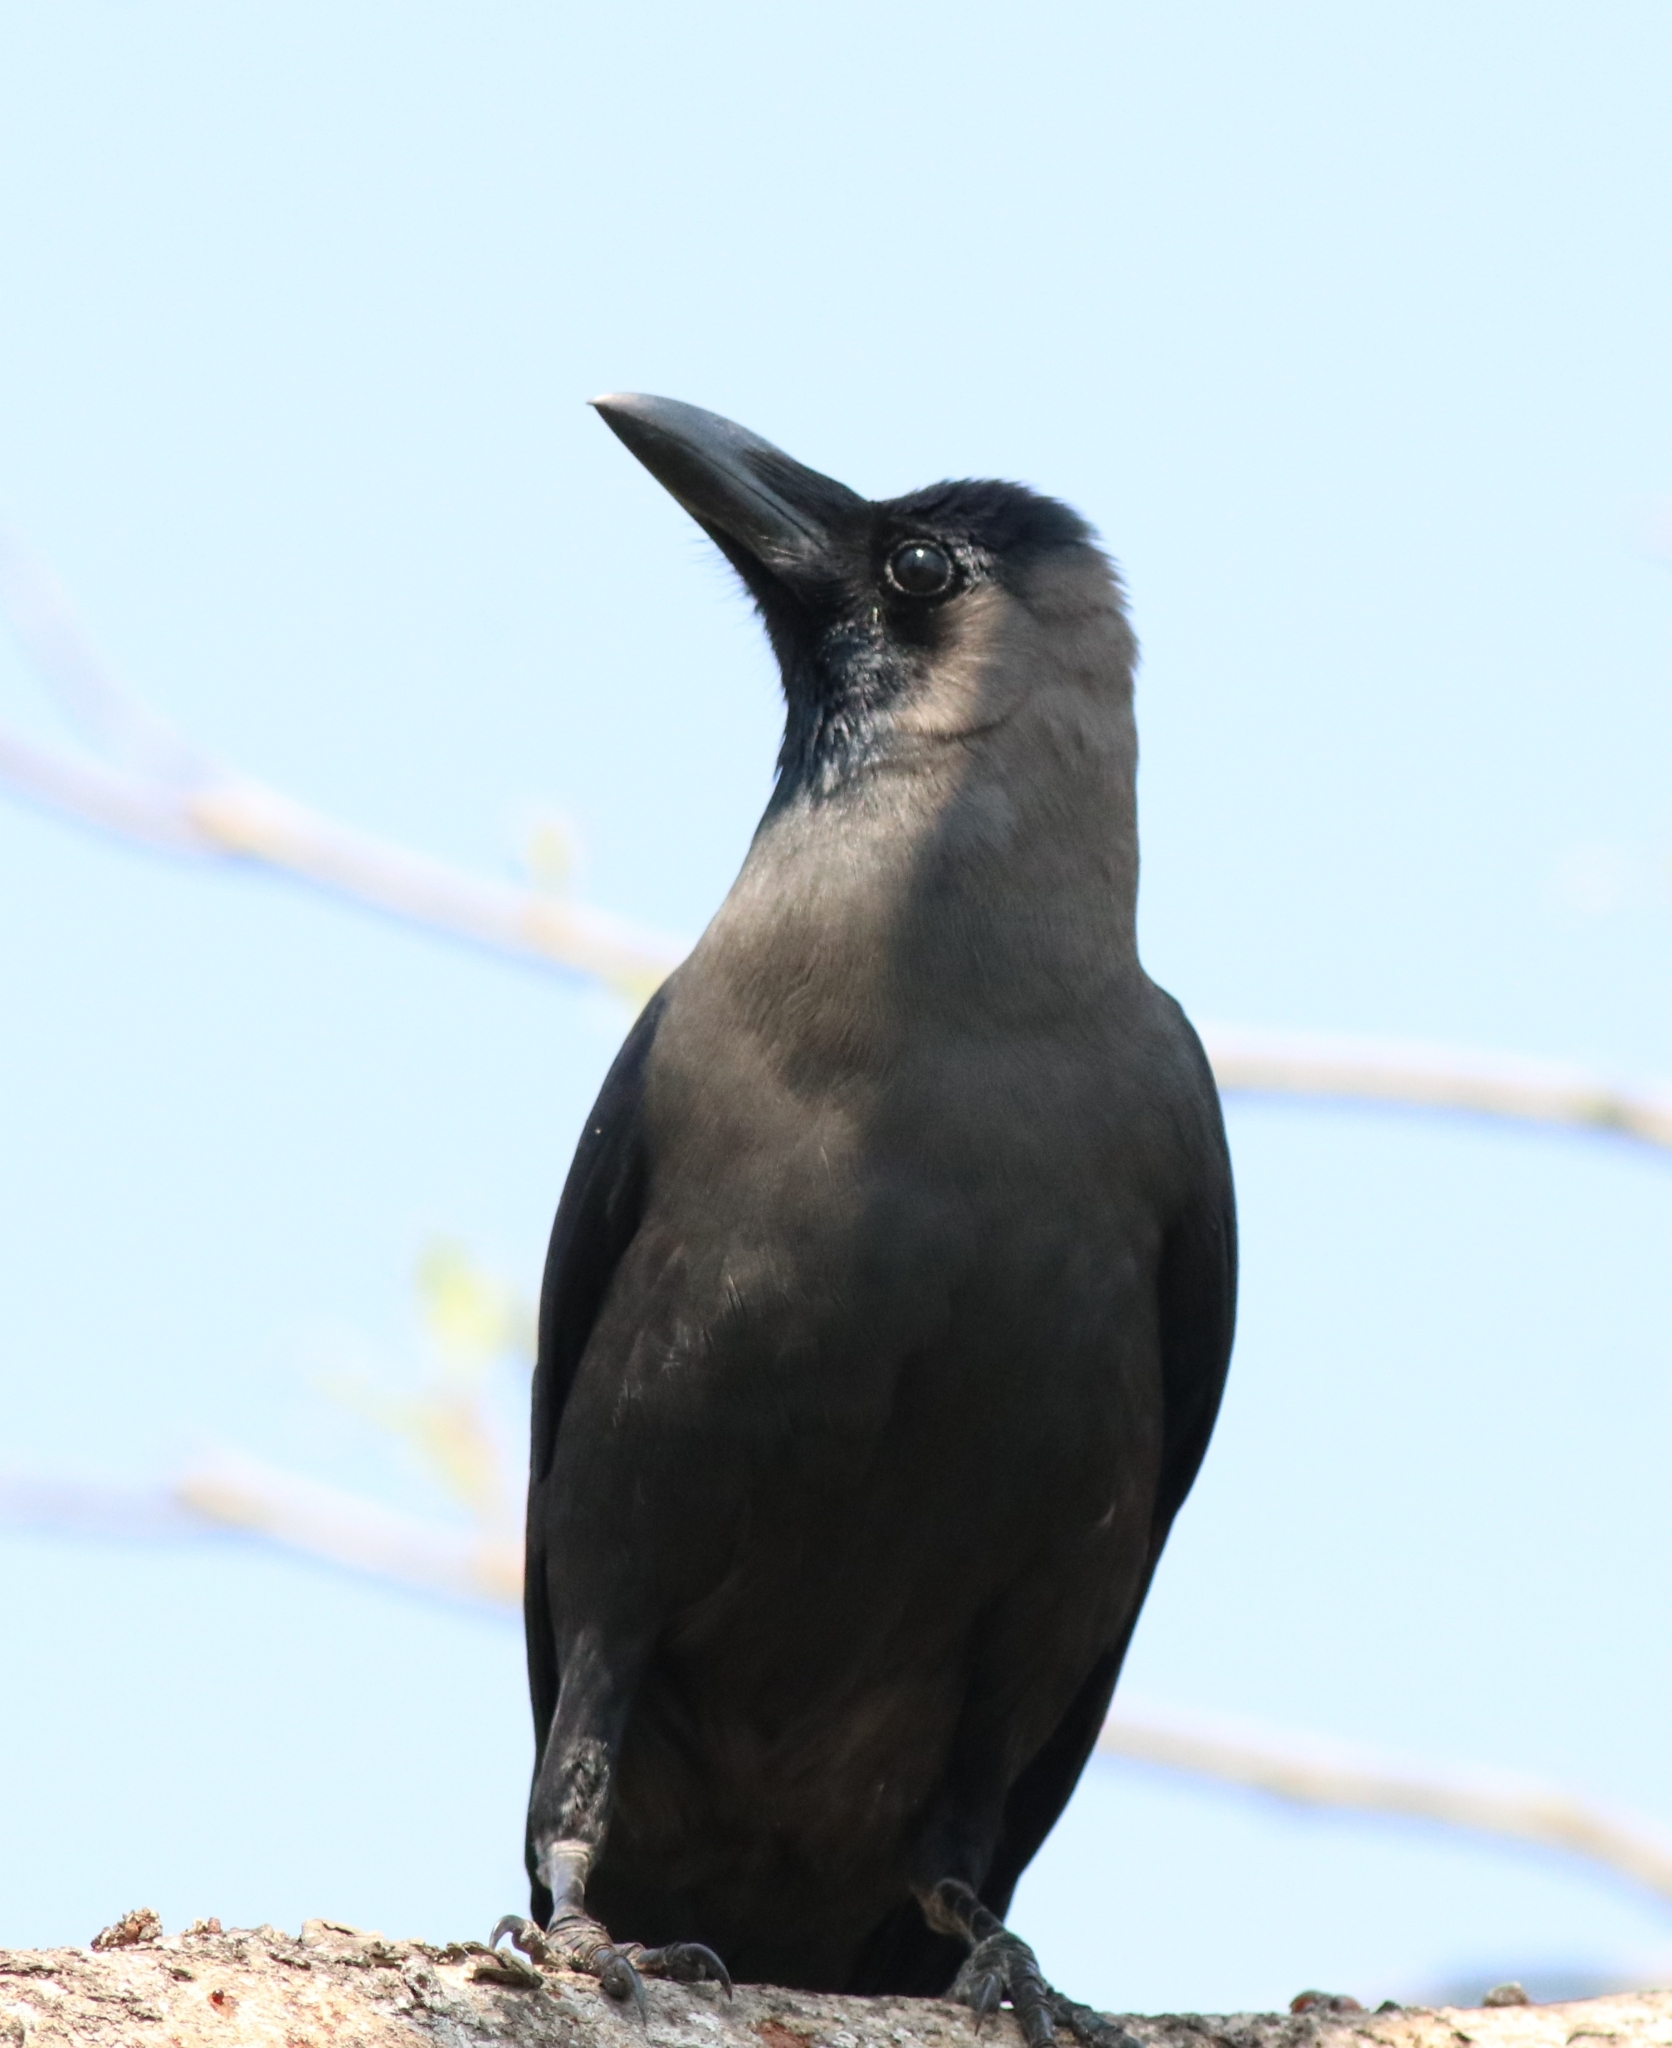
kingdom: Animalia
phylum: Chordata
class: Aves
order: Passeriformes
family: Corvidae
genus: Corvus
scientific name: Corvus splendens
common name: House crow
